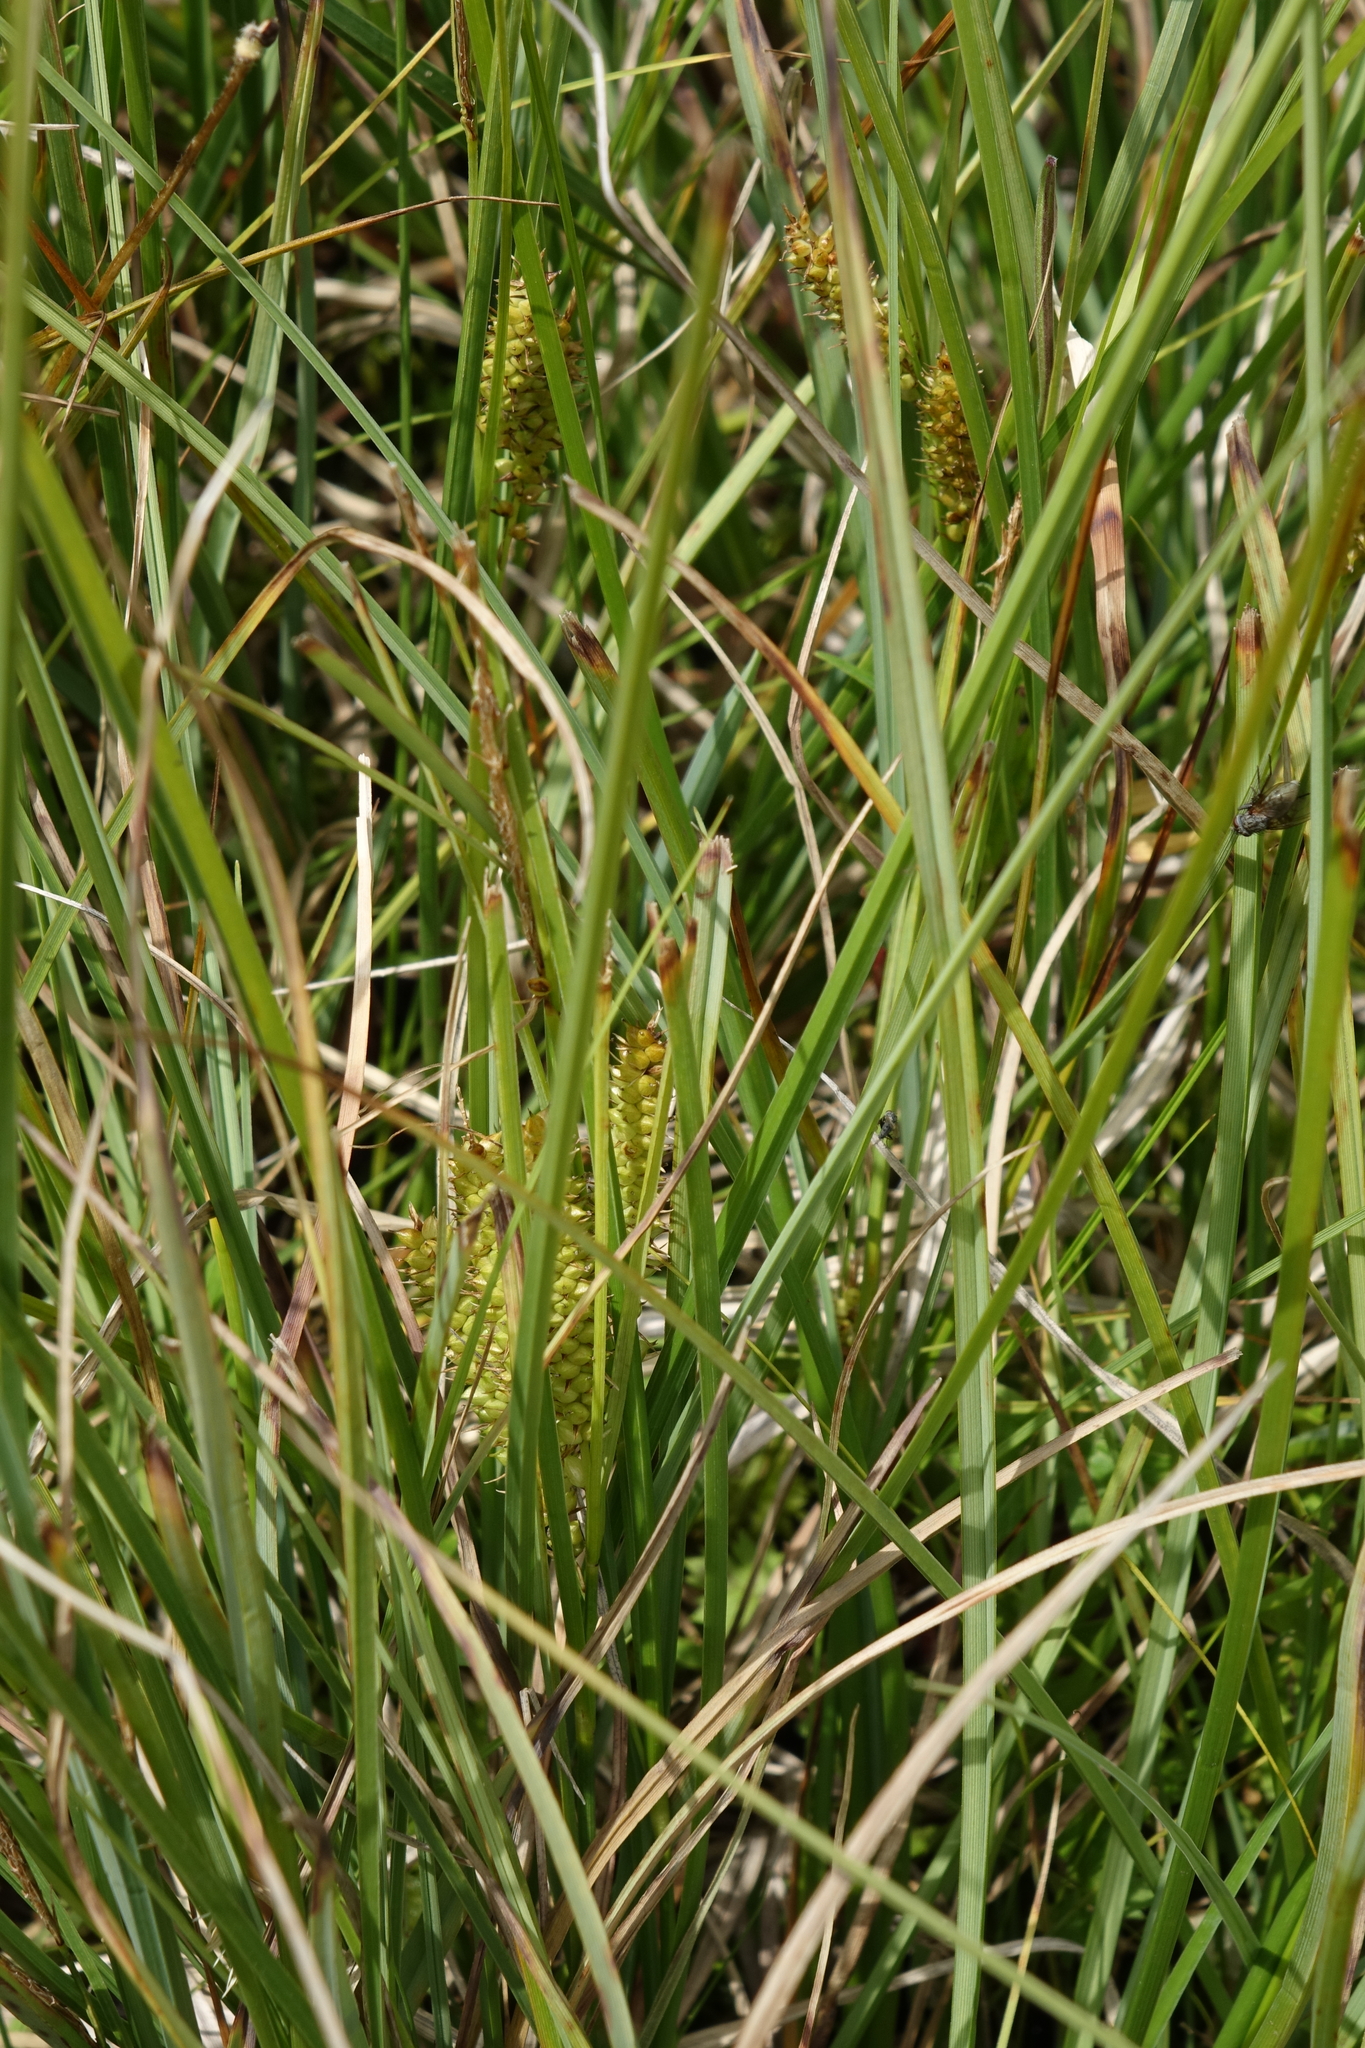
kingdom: Plantae
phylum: Tracheophyta
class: Liliopsida
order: Poales
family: Cyperaceae
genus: Carex
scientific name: Carex rostrata
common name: Bottle sedge
